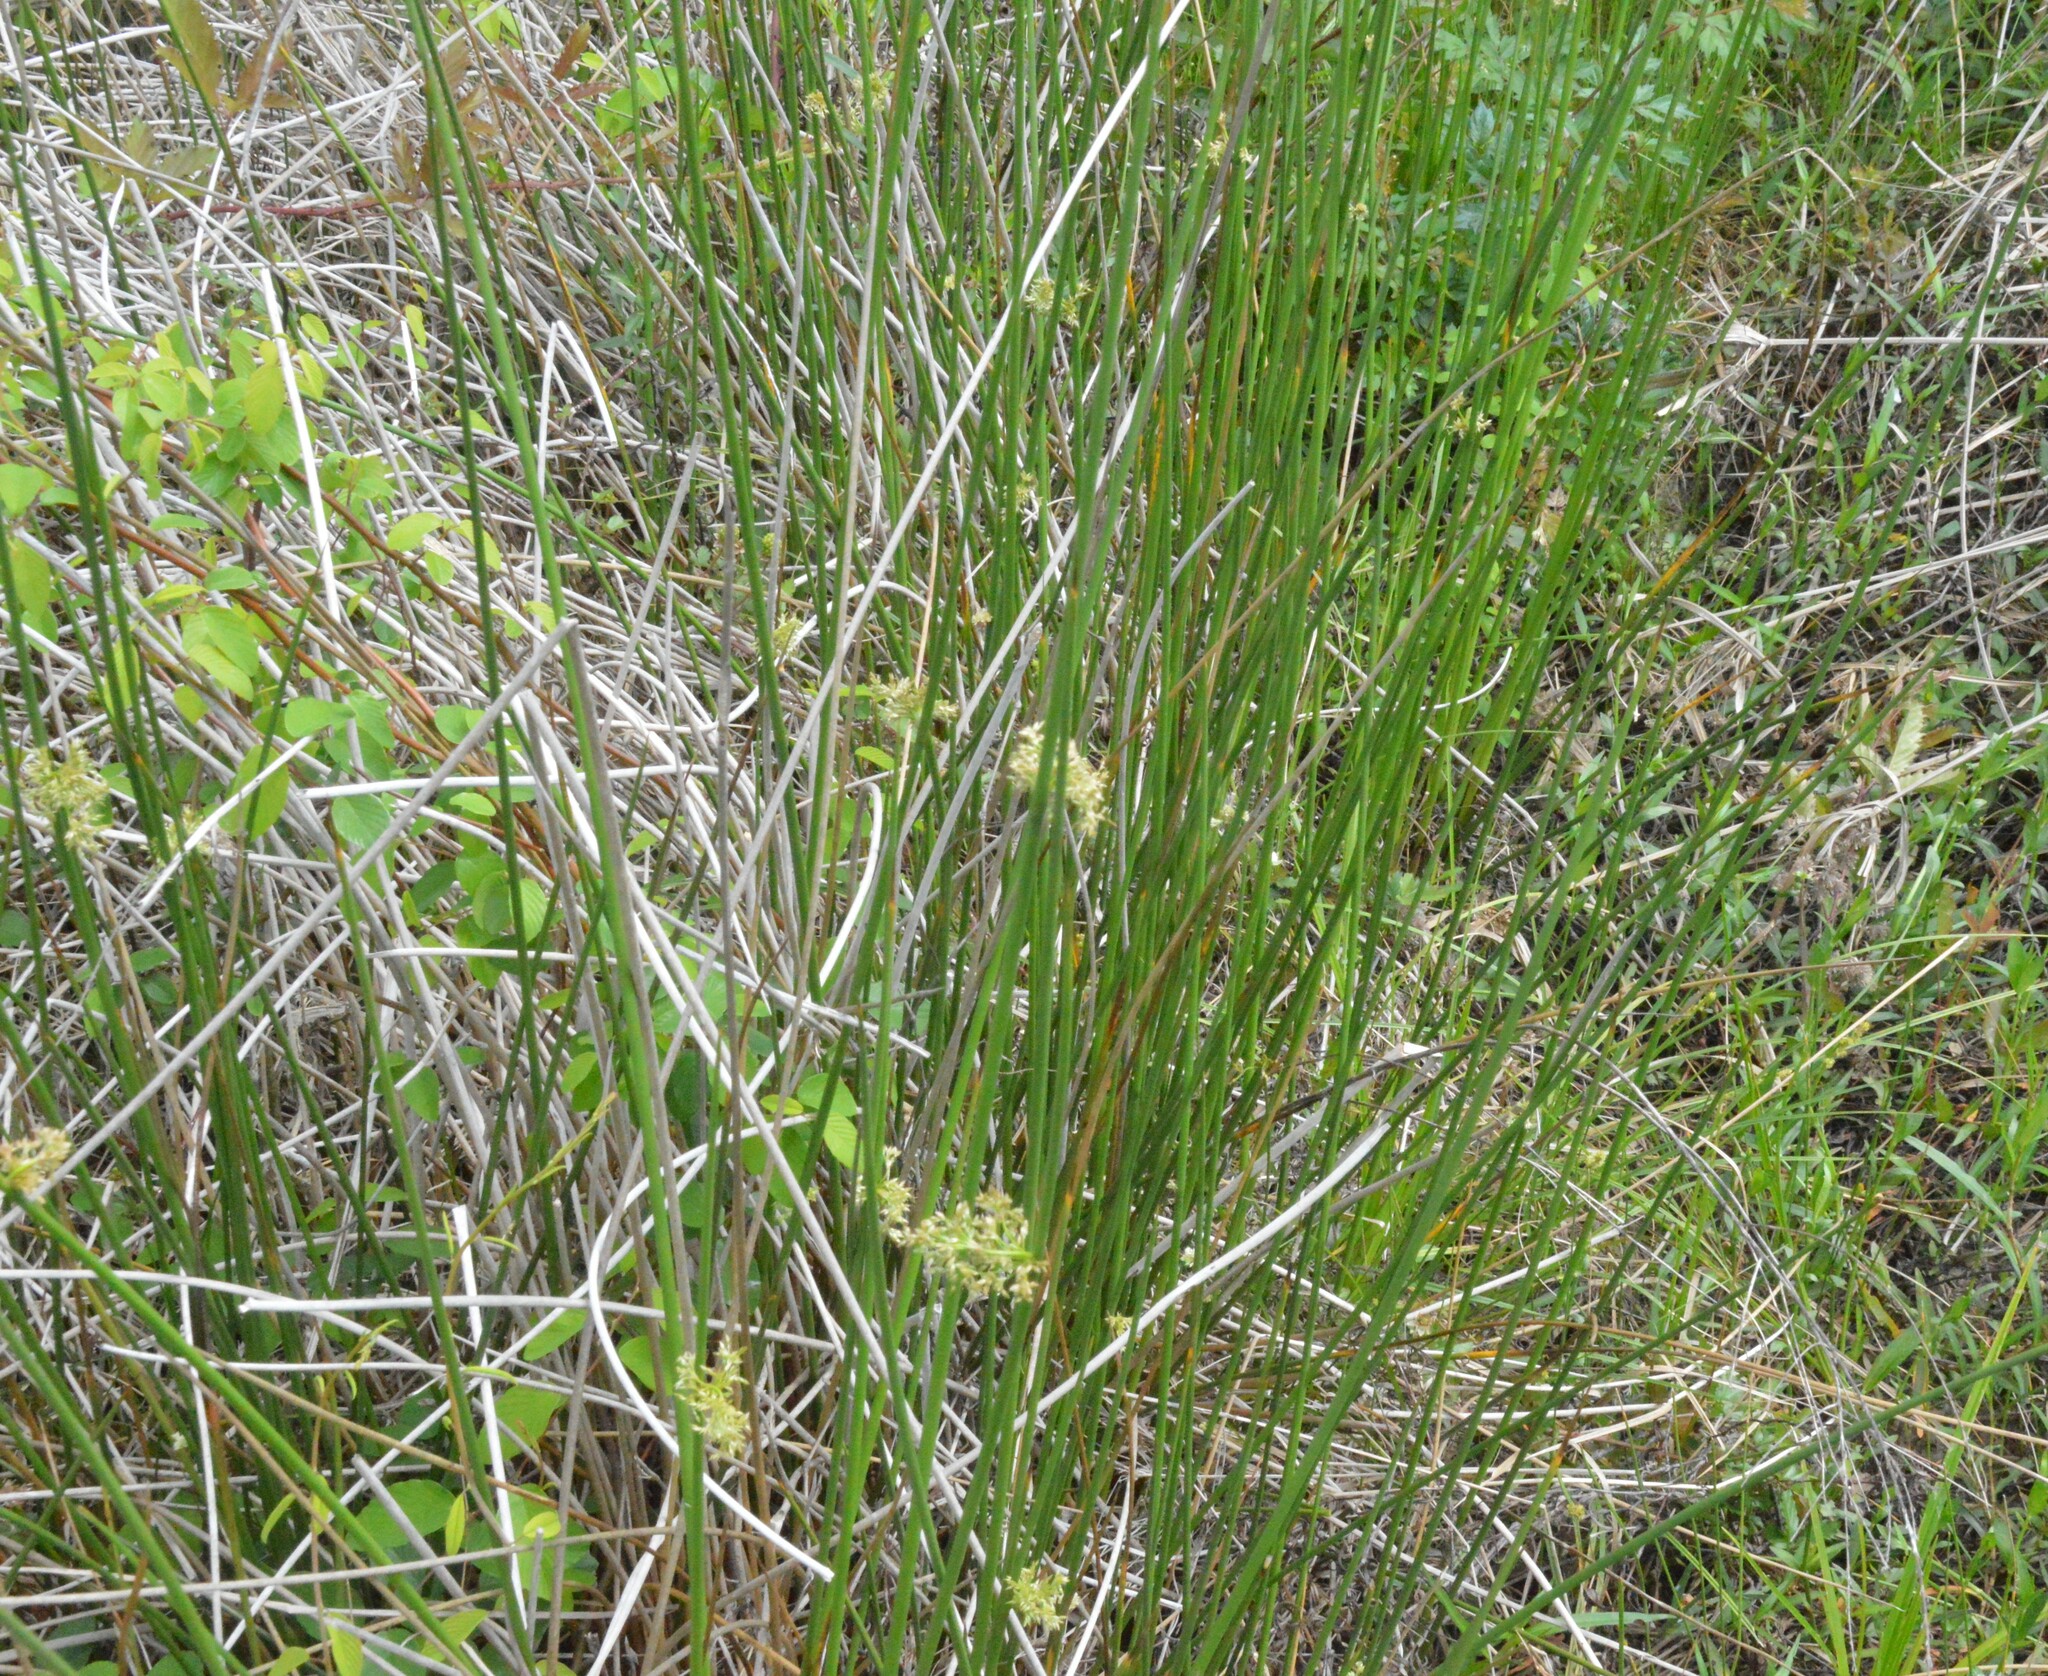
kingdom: Plantae
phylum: Tracheophyta
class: Liliopsida
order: Poales
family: Juncaceae
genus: Juncus
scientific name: Juncus effusus
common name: Soft rush
